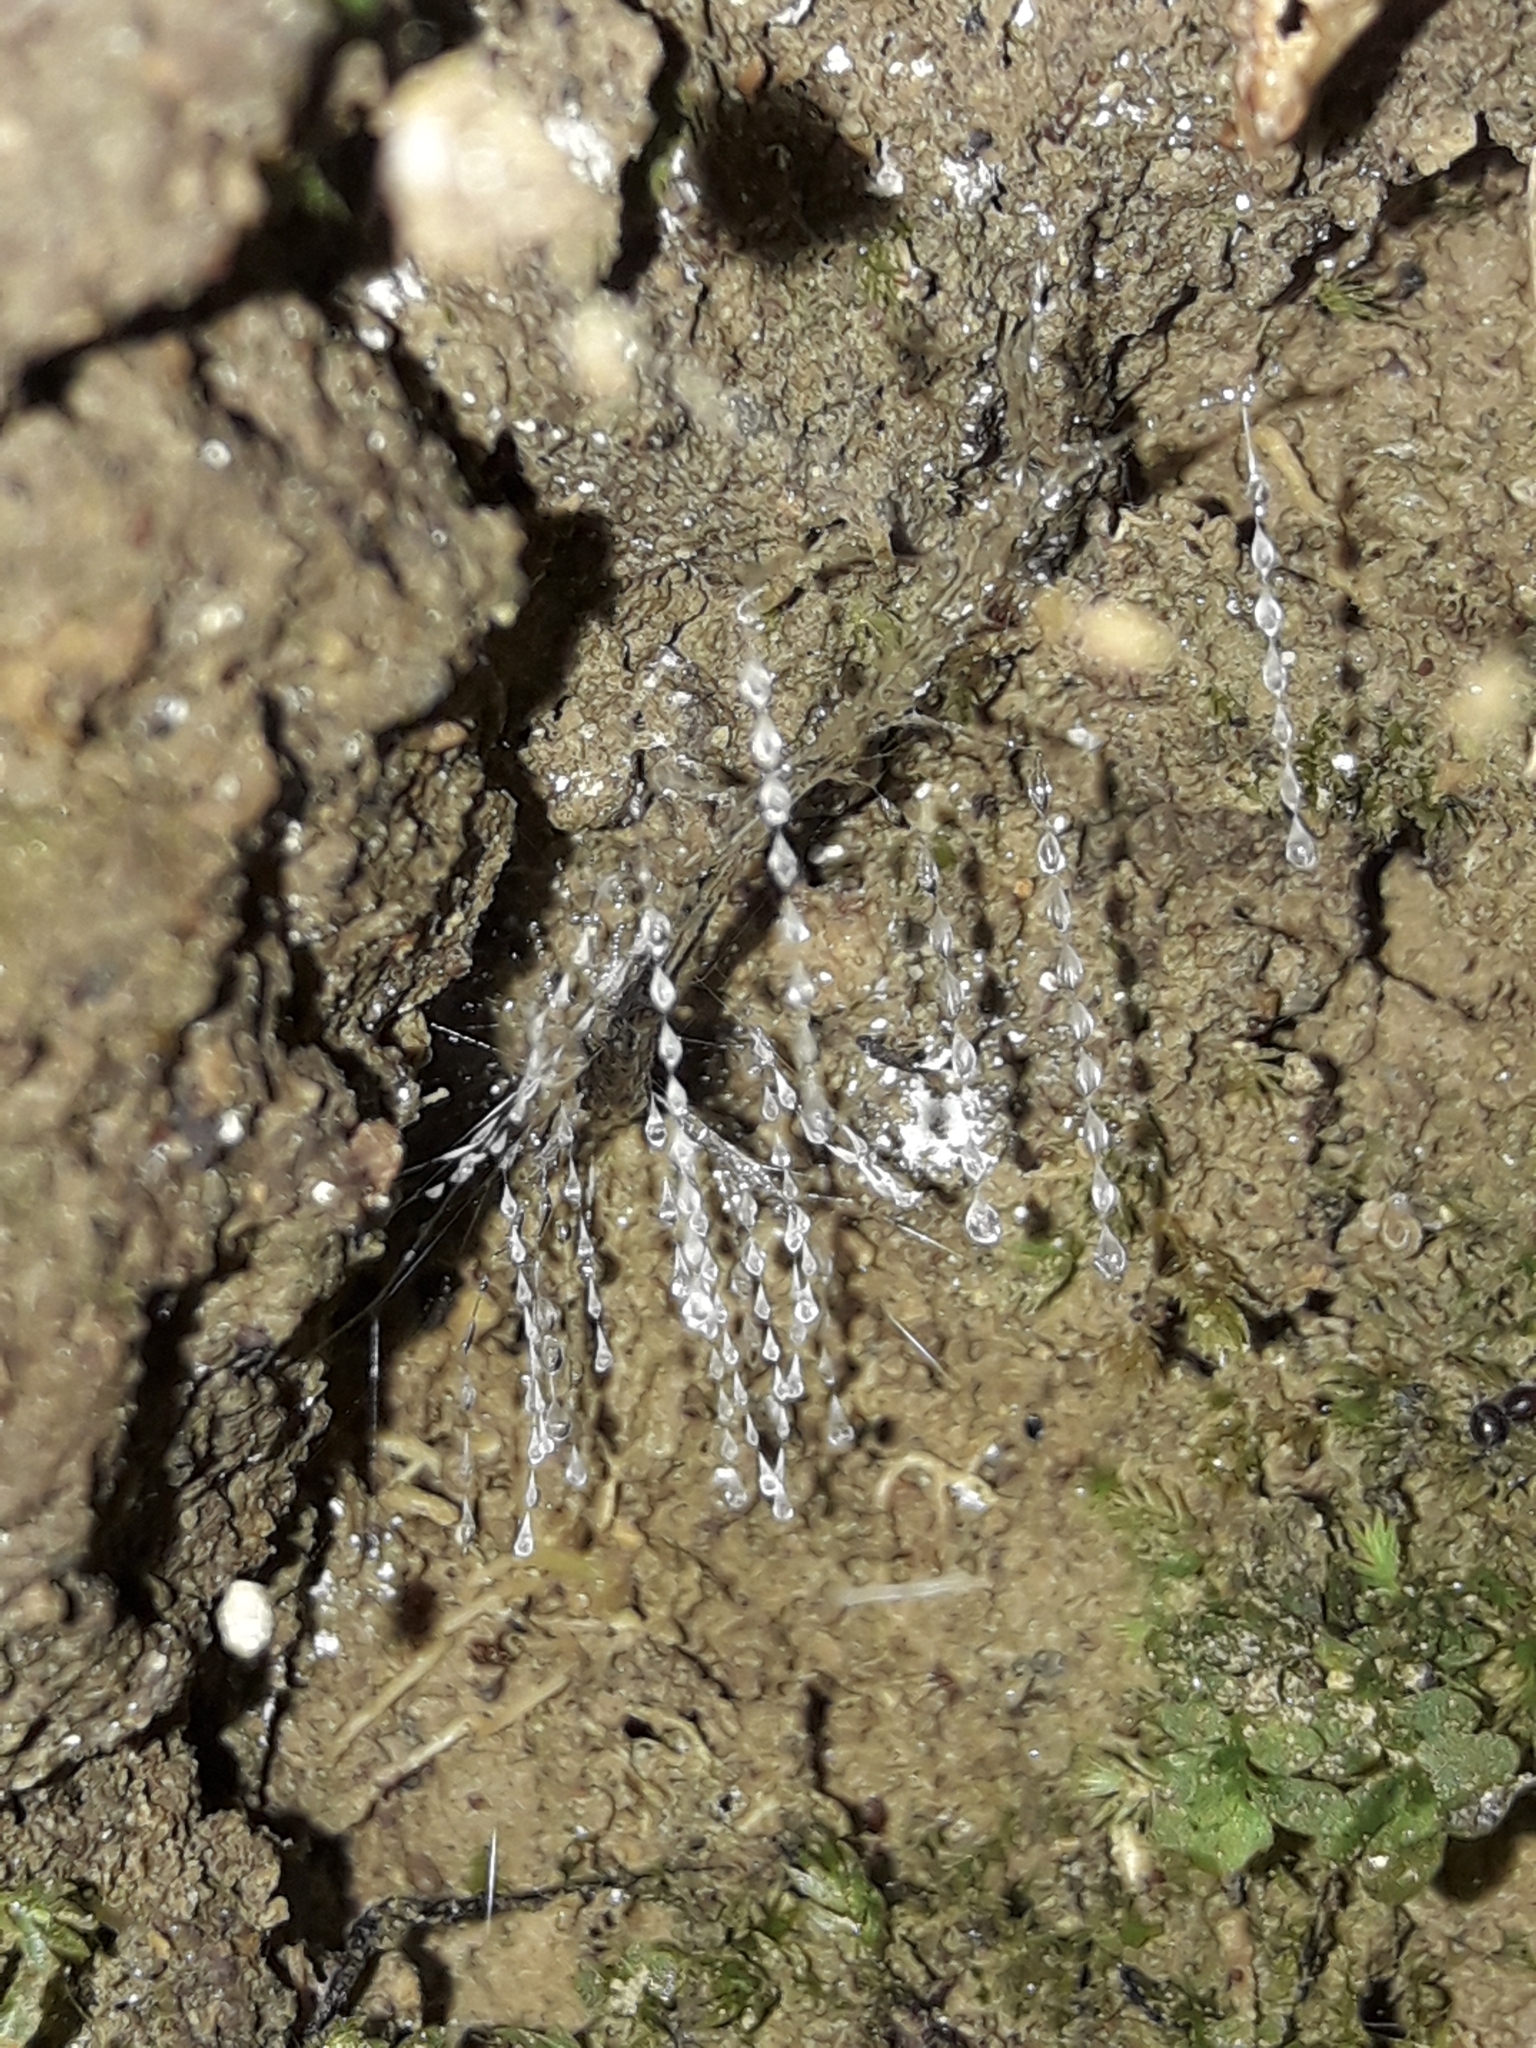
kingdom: Animalia
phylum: Arthropoda
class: Insecta
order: Diptera
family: Keroplatidae
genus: Arachnocampa
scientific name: Arachnocampa luminosa
